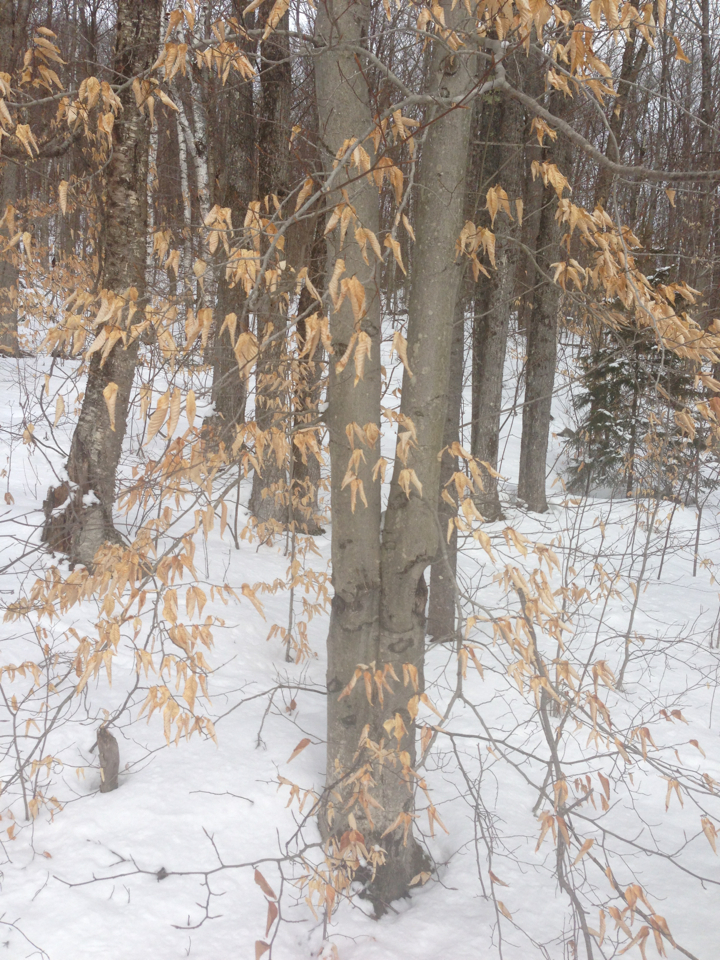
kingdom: Plantae
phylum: Tracheophyta
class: Magnoliopsida
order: Fagales
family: Fagaceae
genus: Fagus
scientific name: Fagus grandifolia
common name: American beech
